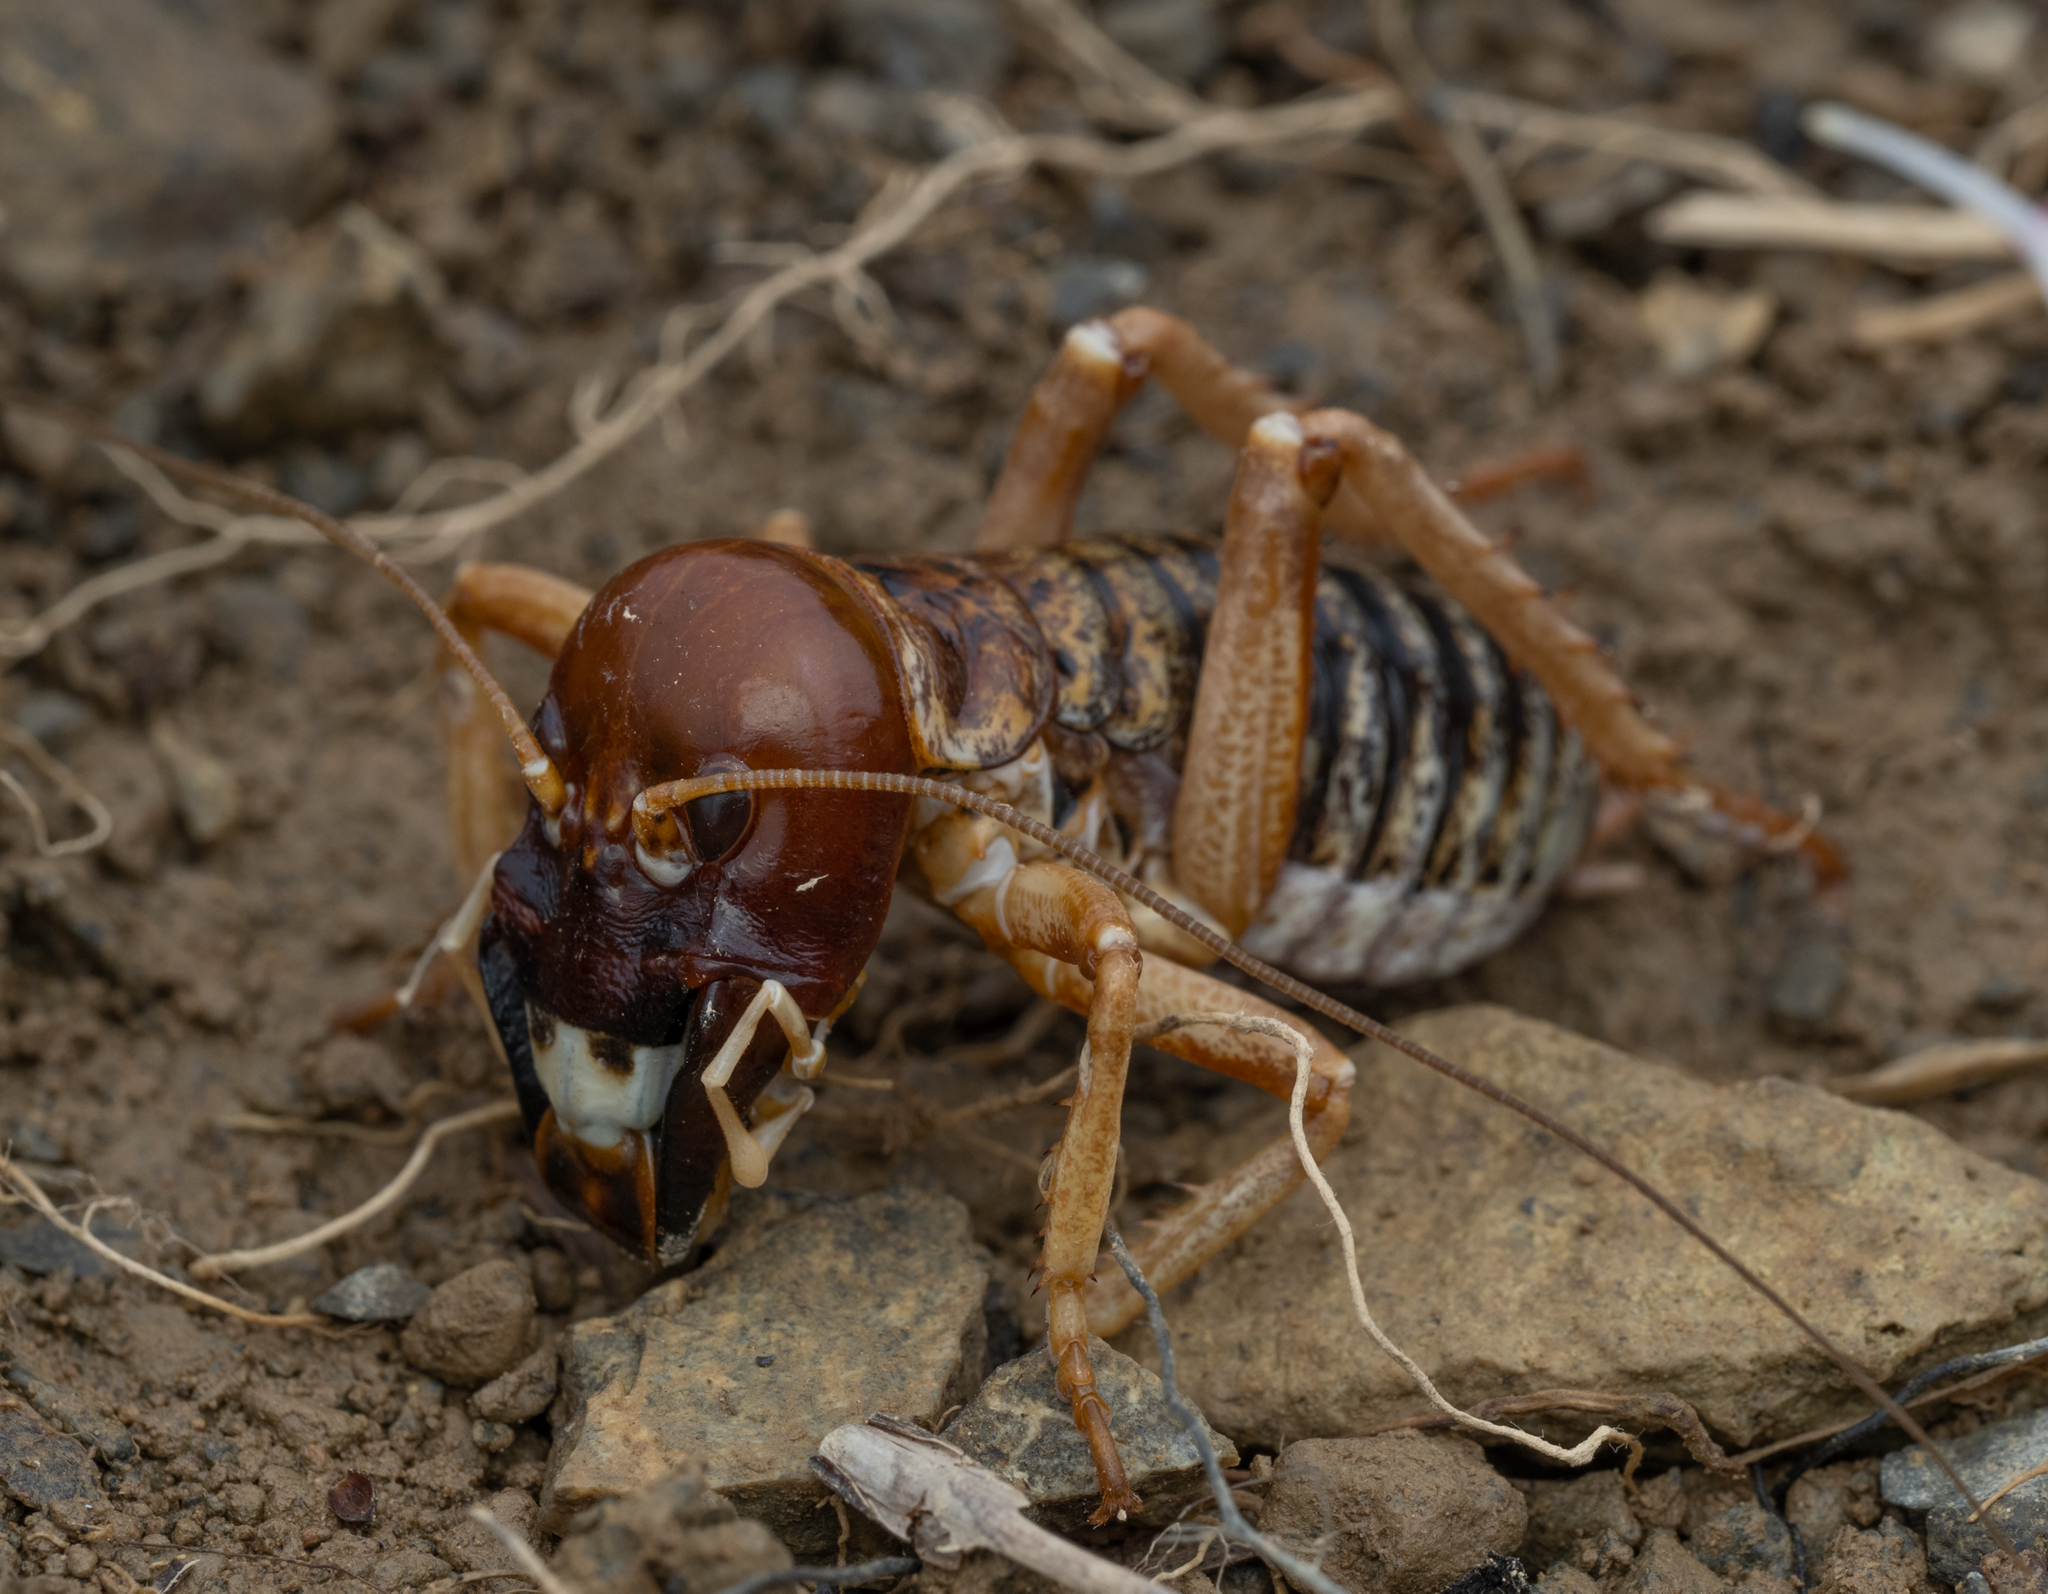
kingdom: Animalia
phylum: Arthropoda
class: Insecta
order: Orthoptera
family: Anostostomatidae
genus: Hemideina
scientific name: Hemideina maori
